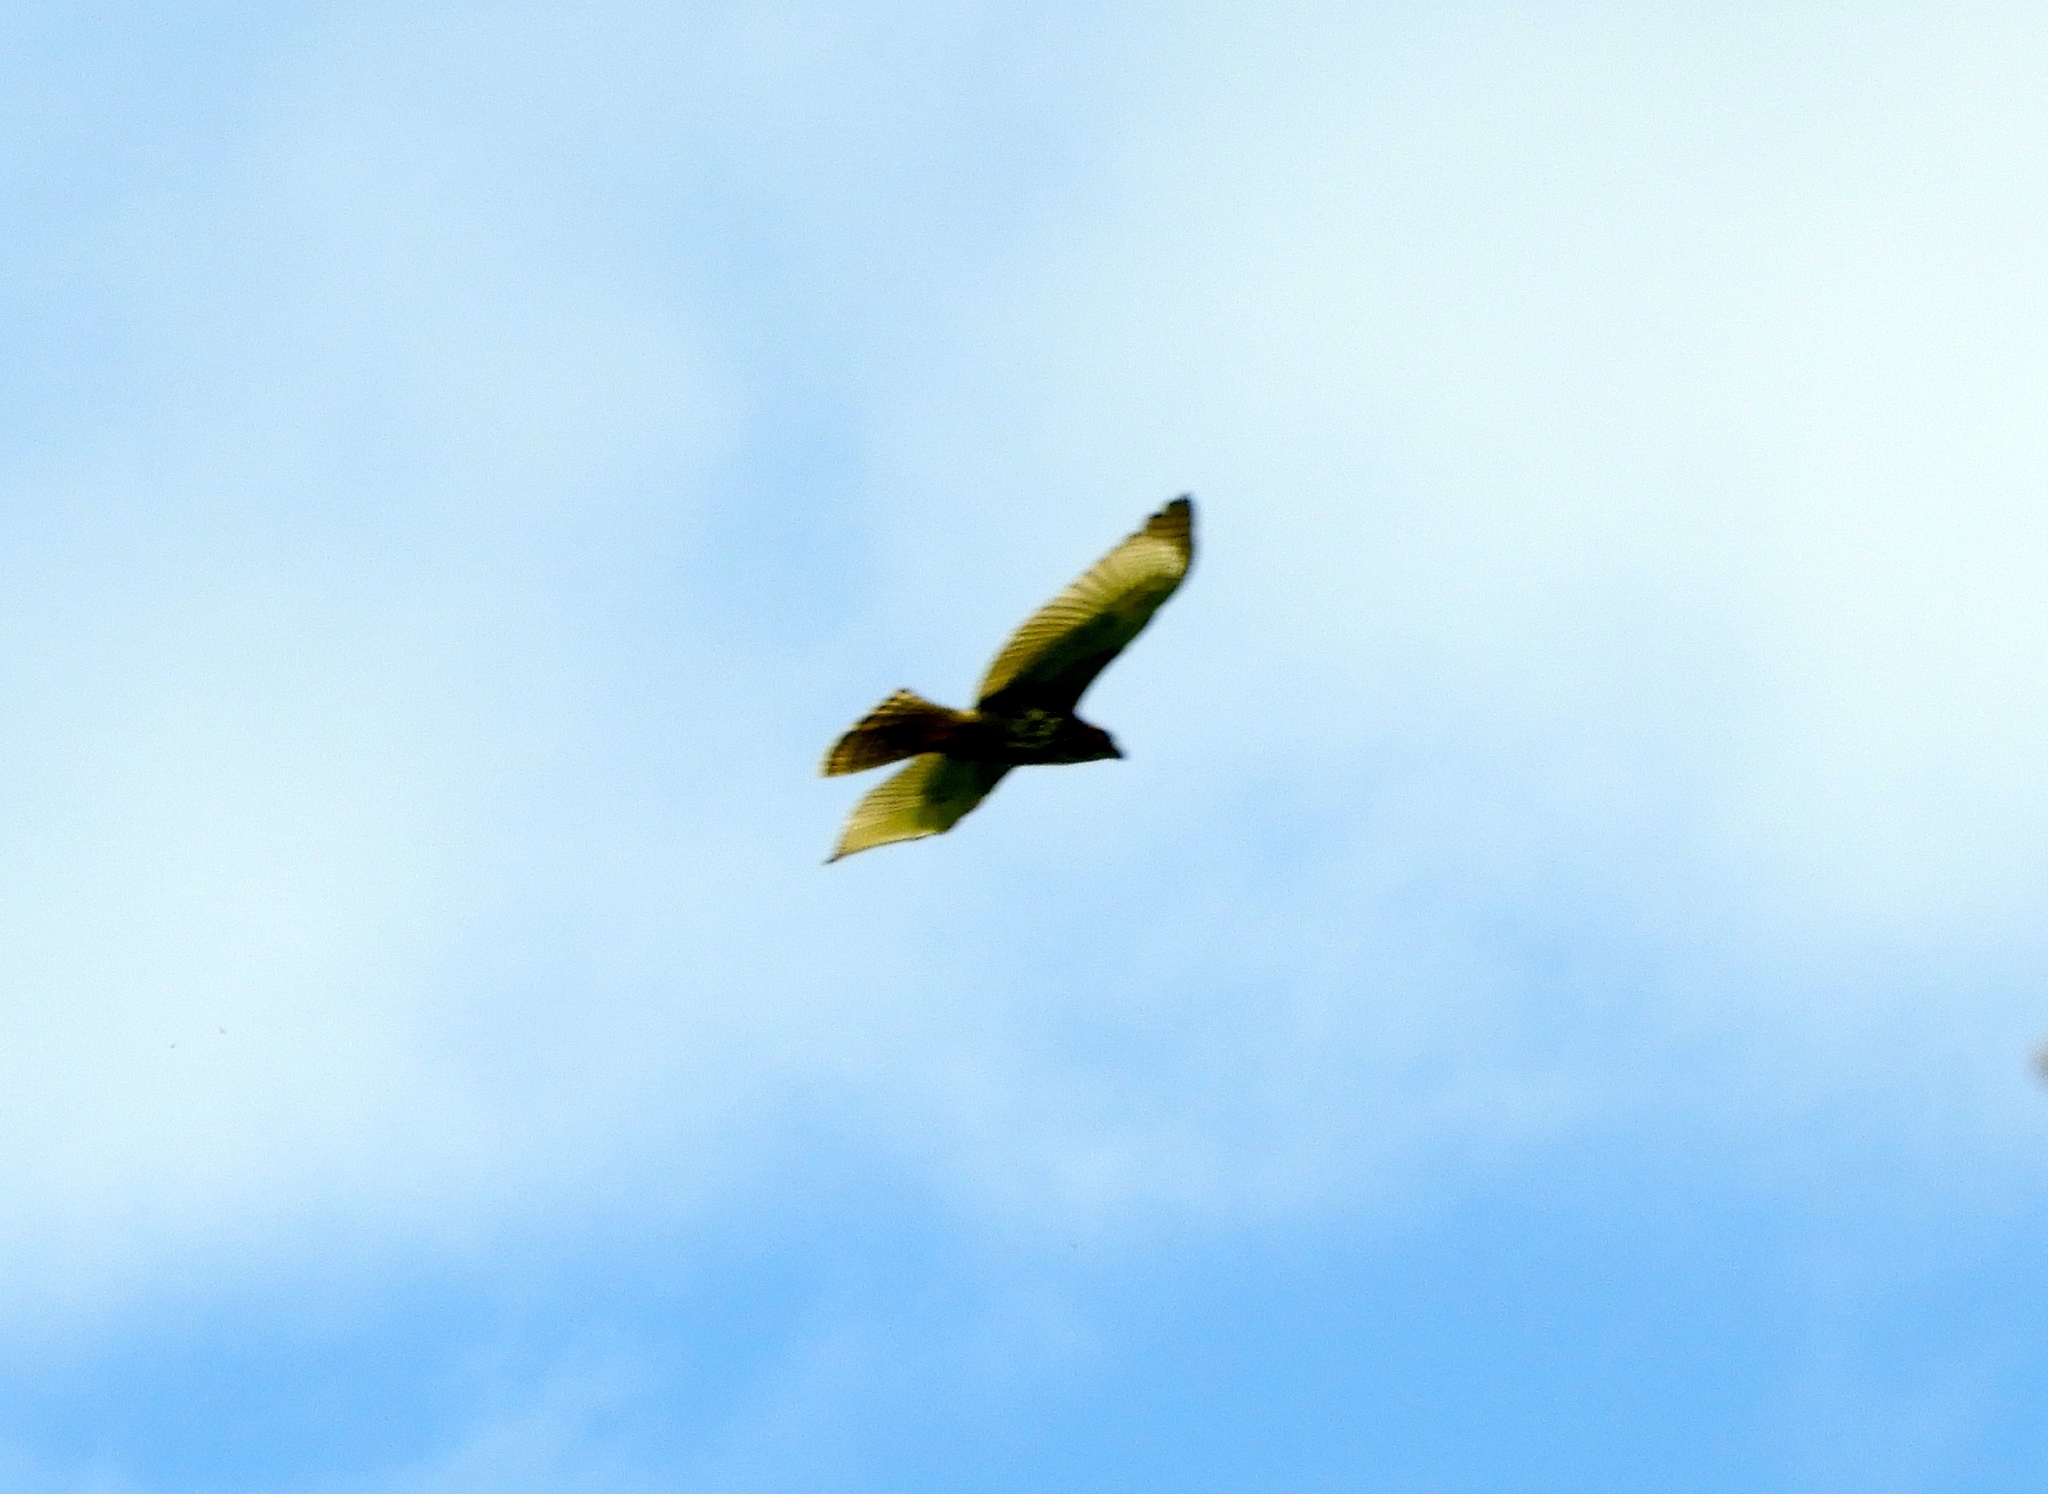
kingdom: Animalia
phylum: Chordata
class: Aves
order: Accipitriformes
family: Accipitridae
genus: Buteo
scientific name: Buteo nitidus
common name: Grey-lined hawk
